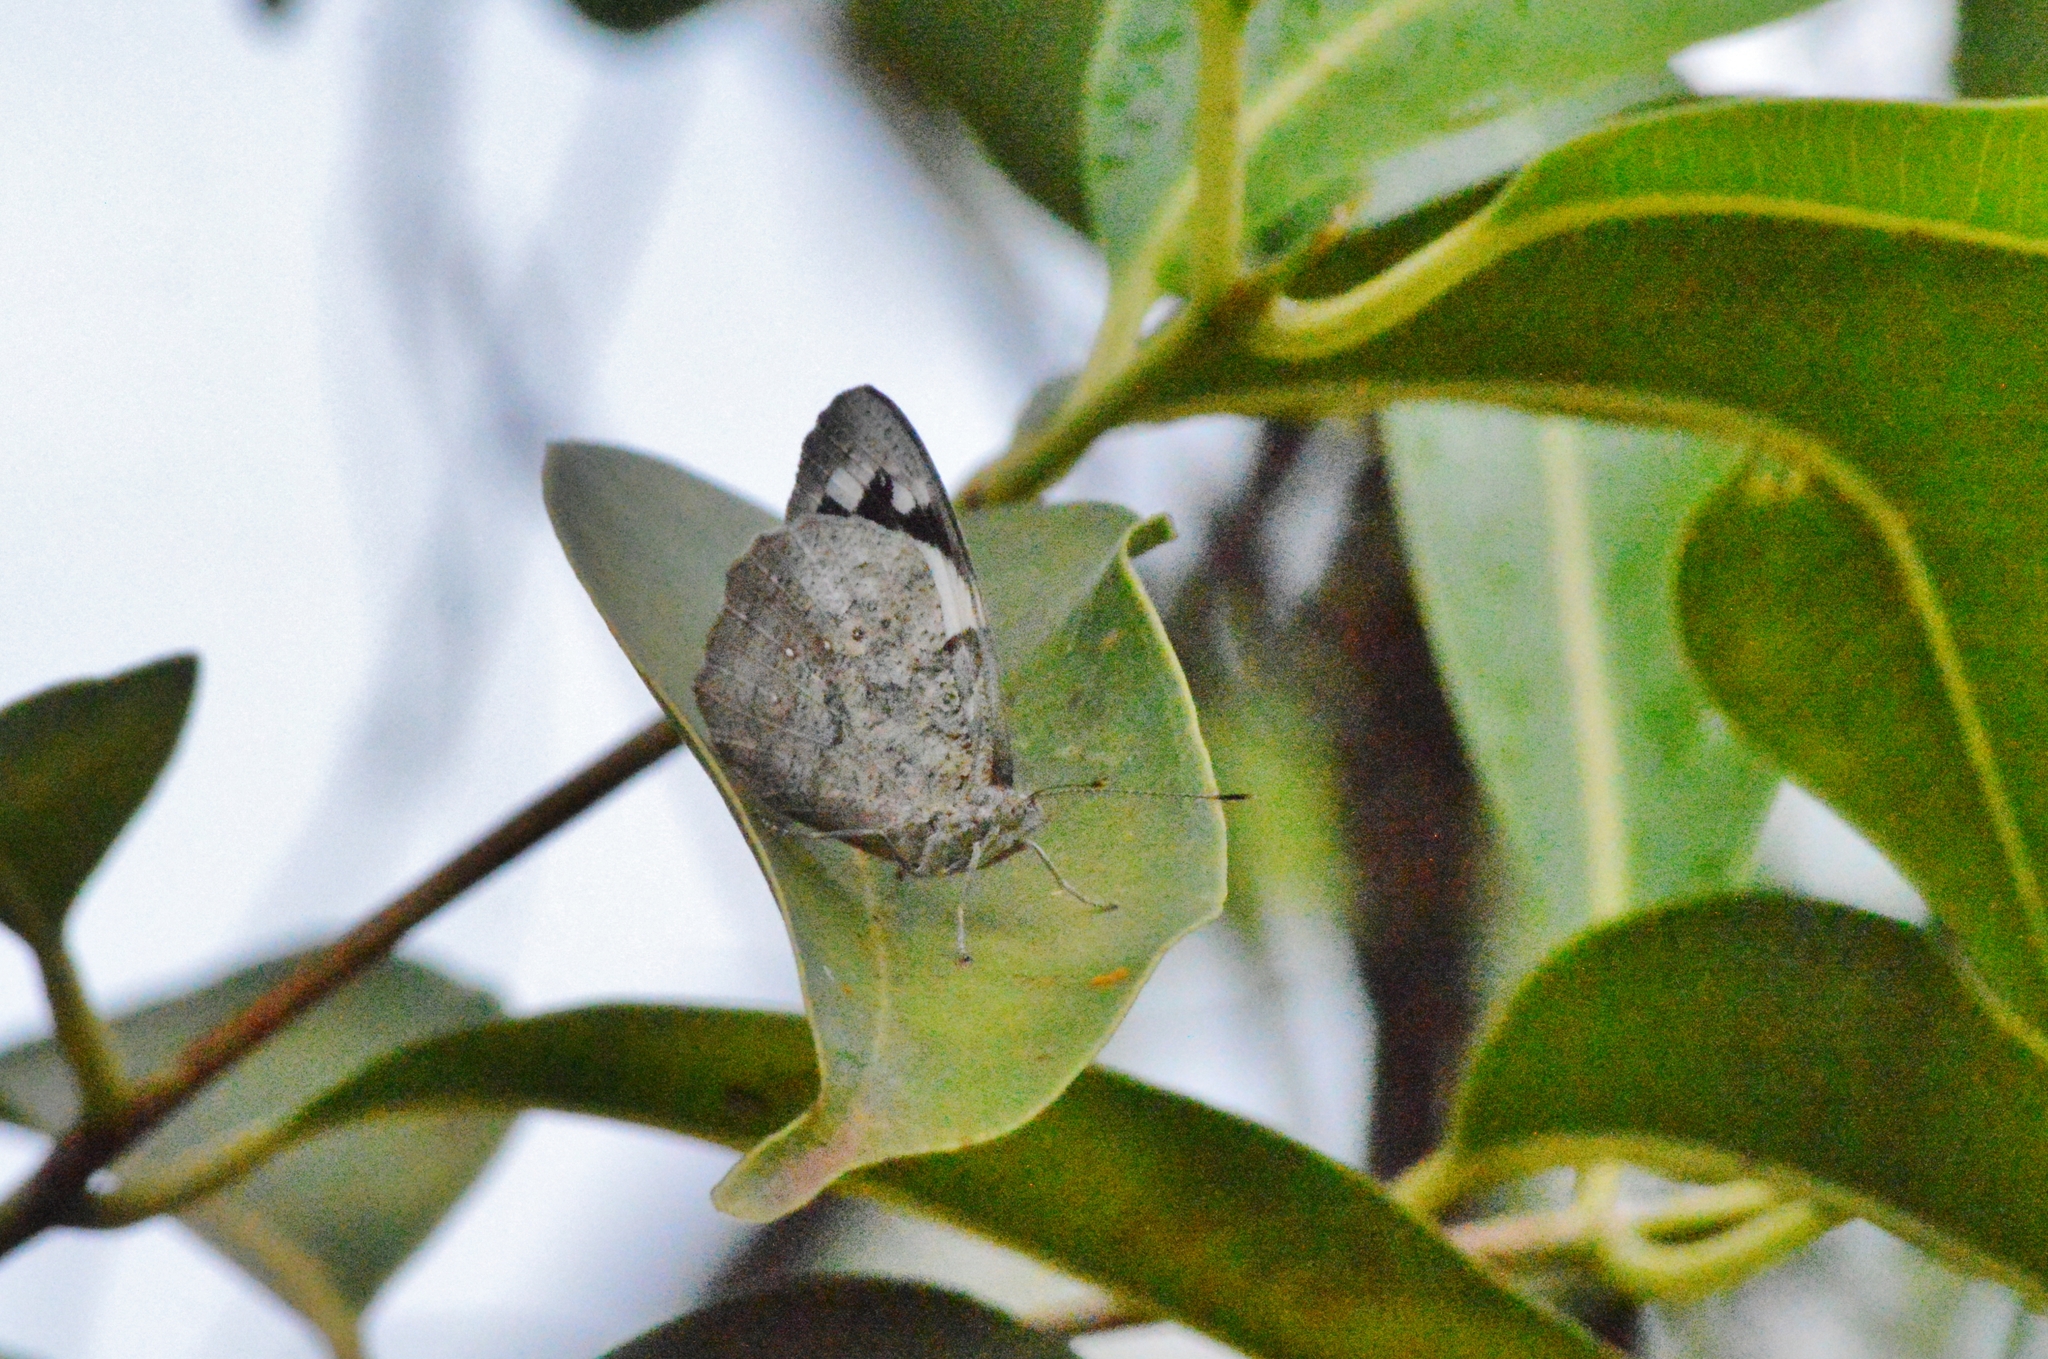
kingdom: Animalia
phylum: Arthropoda
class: Insecta
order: Lepidoptera
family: Nymphalidae
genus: Eunica
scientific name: Eunica eburnea
